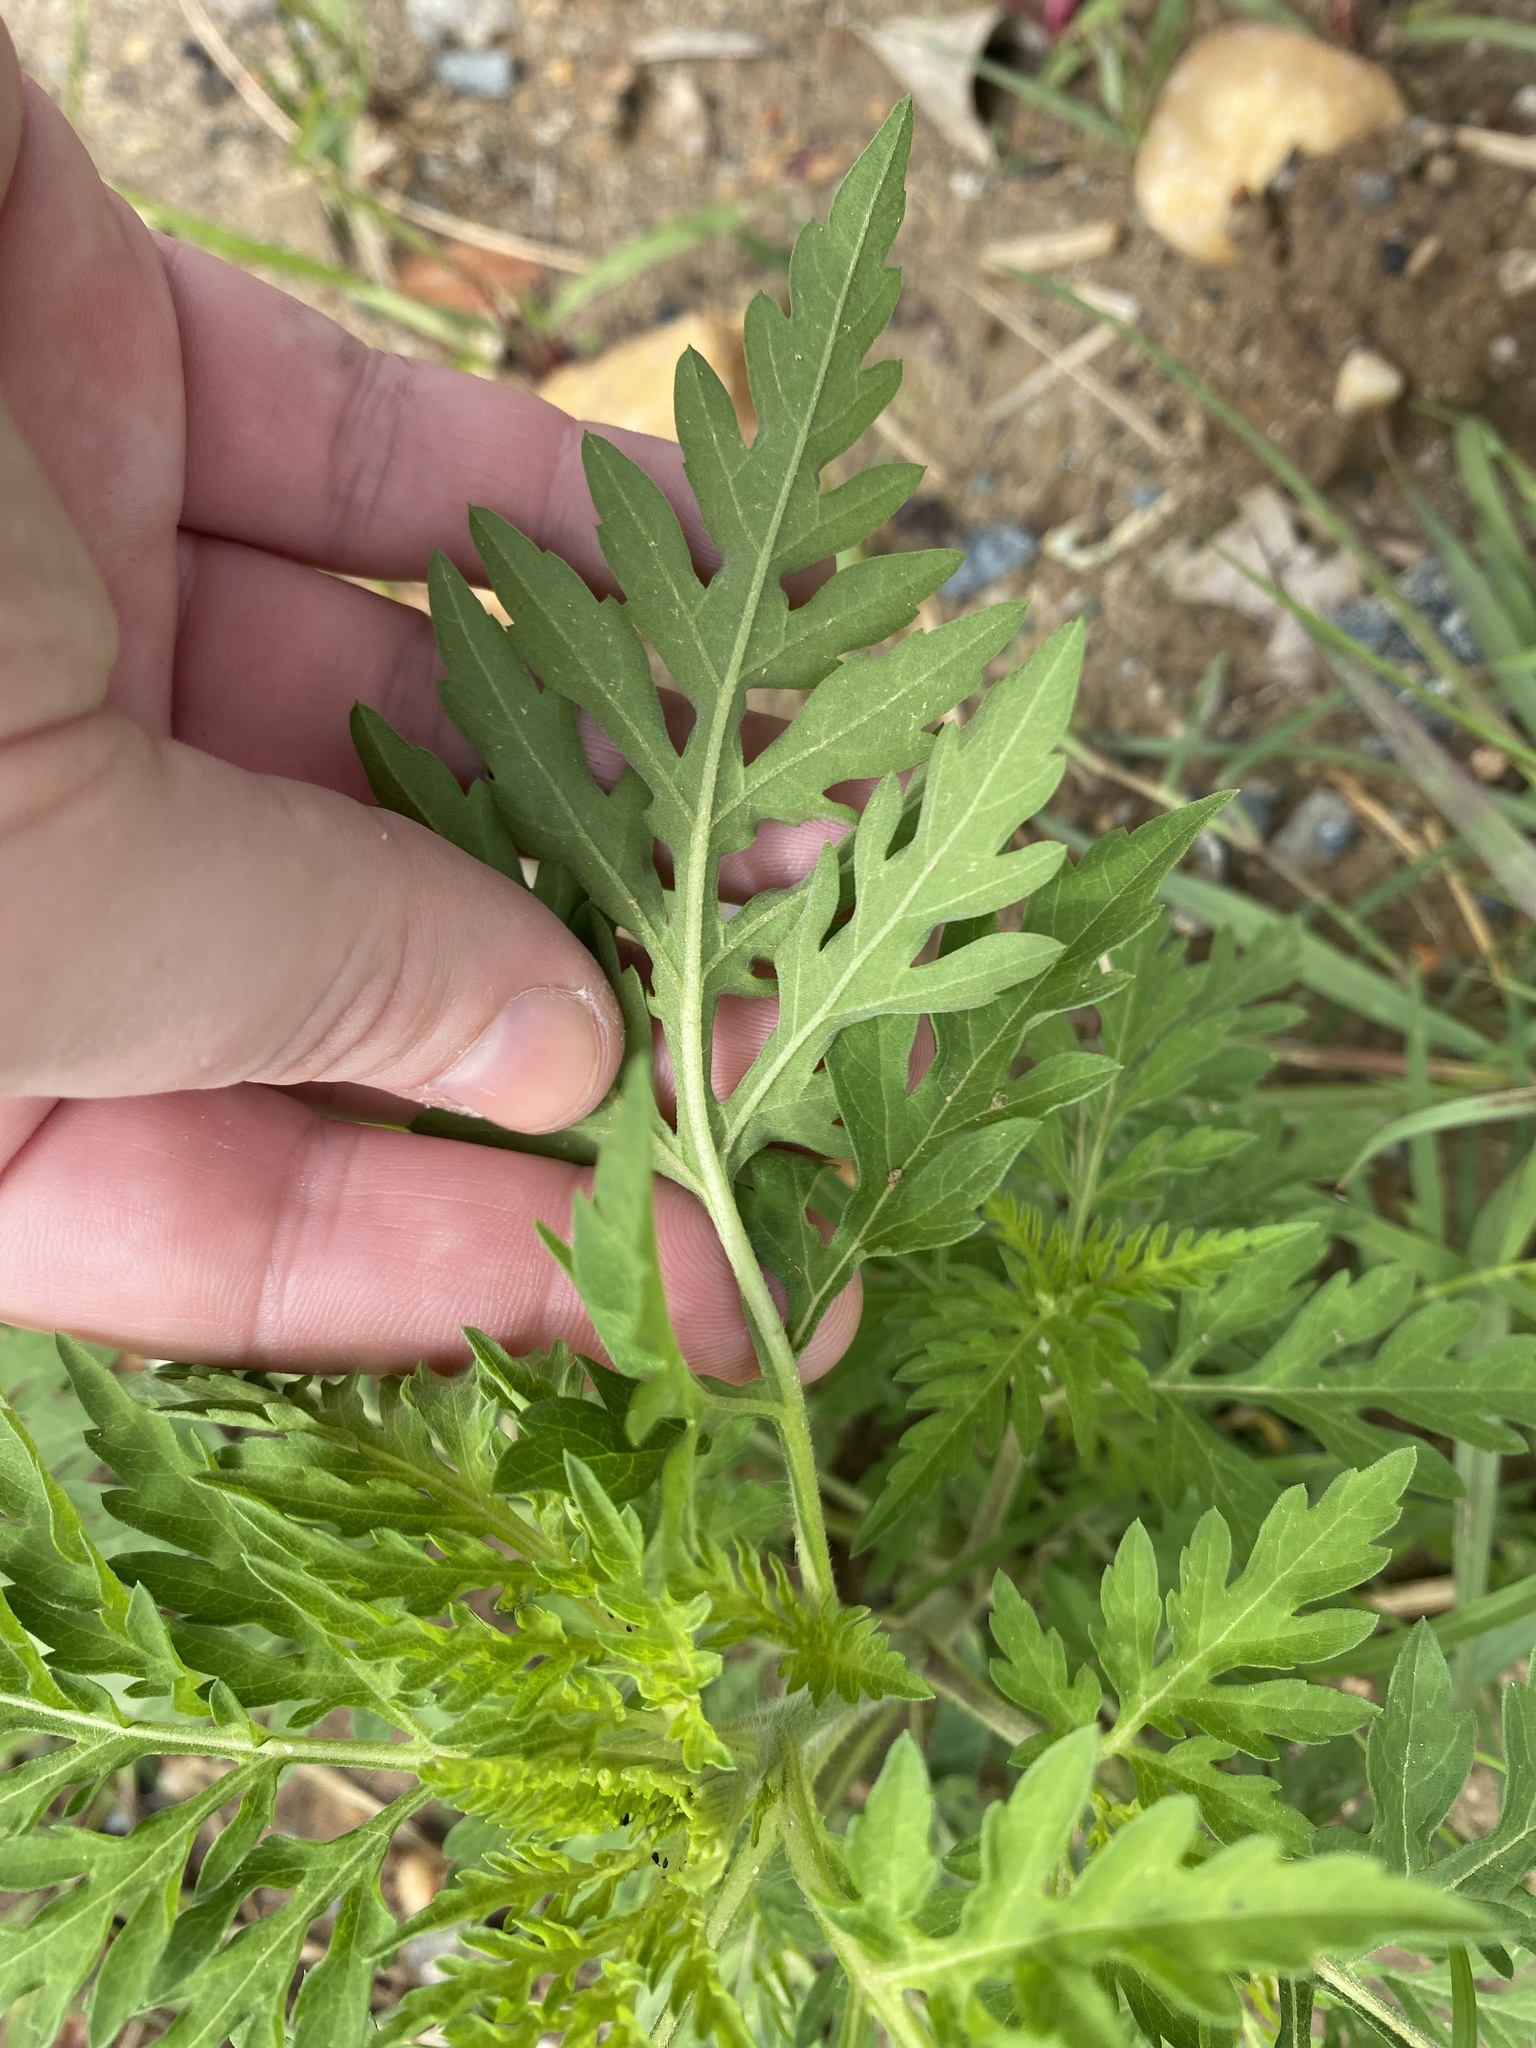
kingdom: Plantae
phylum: Tracheophyta
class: Magnoliopsida
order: Asterales
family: Asteraceae
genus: Ambrosia
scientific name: Ambrosia artemisiifolia
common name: Annual ragweed
